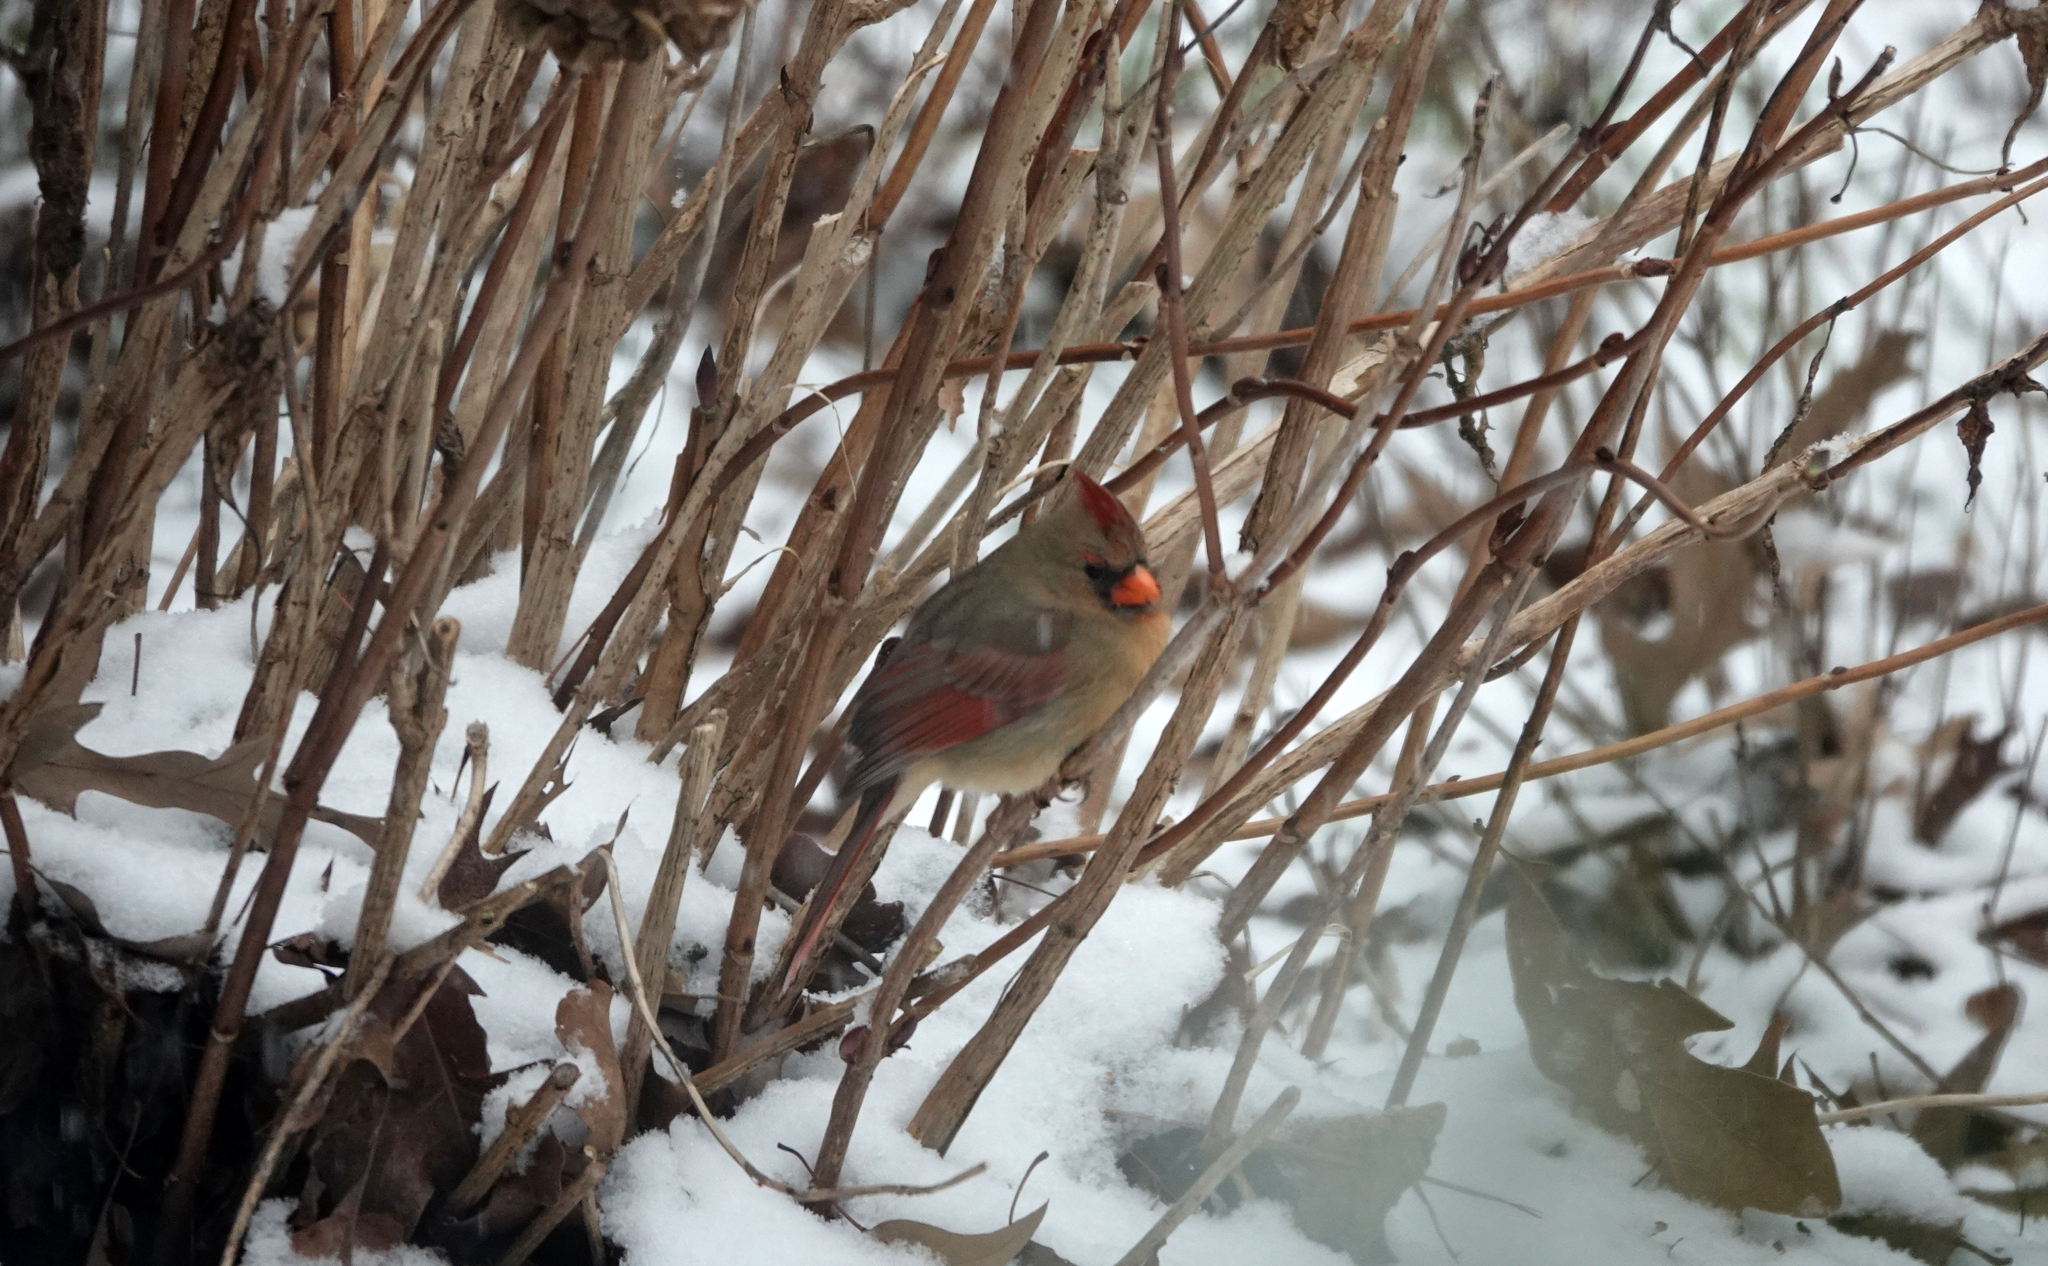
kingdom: Animalia
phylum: Chordata
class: Aves
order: Passeriformes
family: Cardinalidae
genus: Cardinalis
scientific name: Cardinalis cardinalis
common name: Northern cardinal
